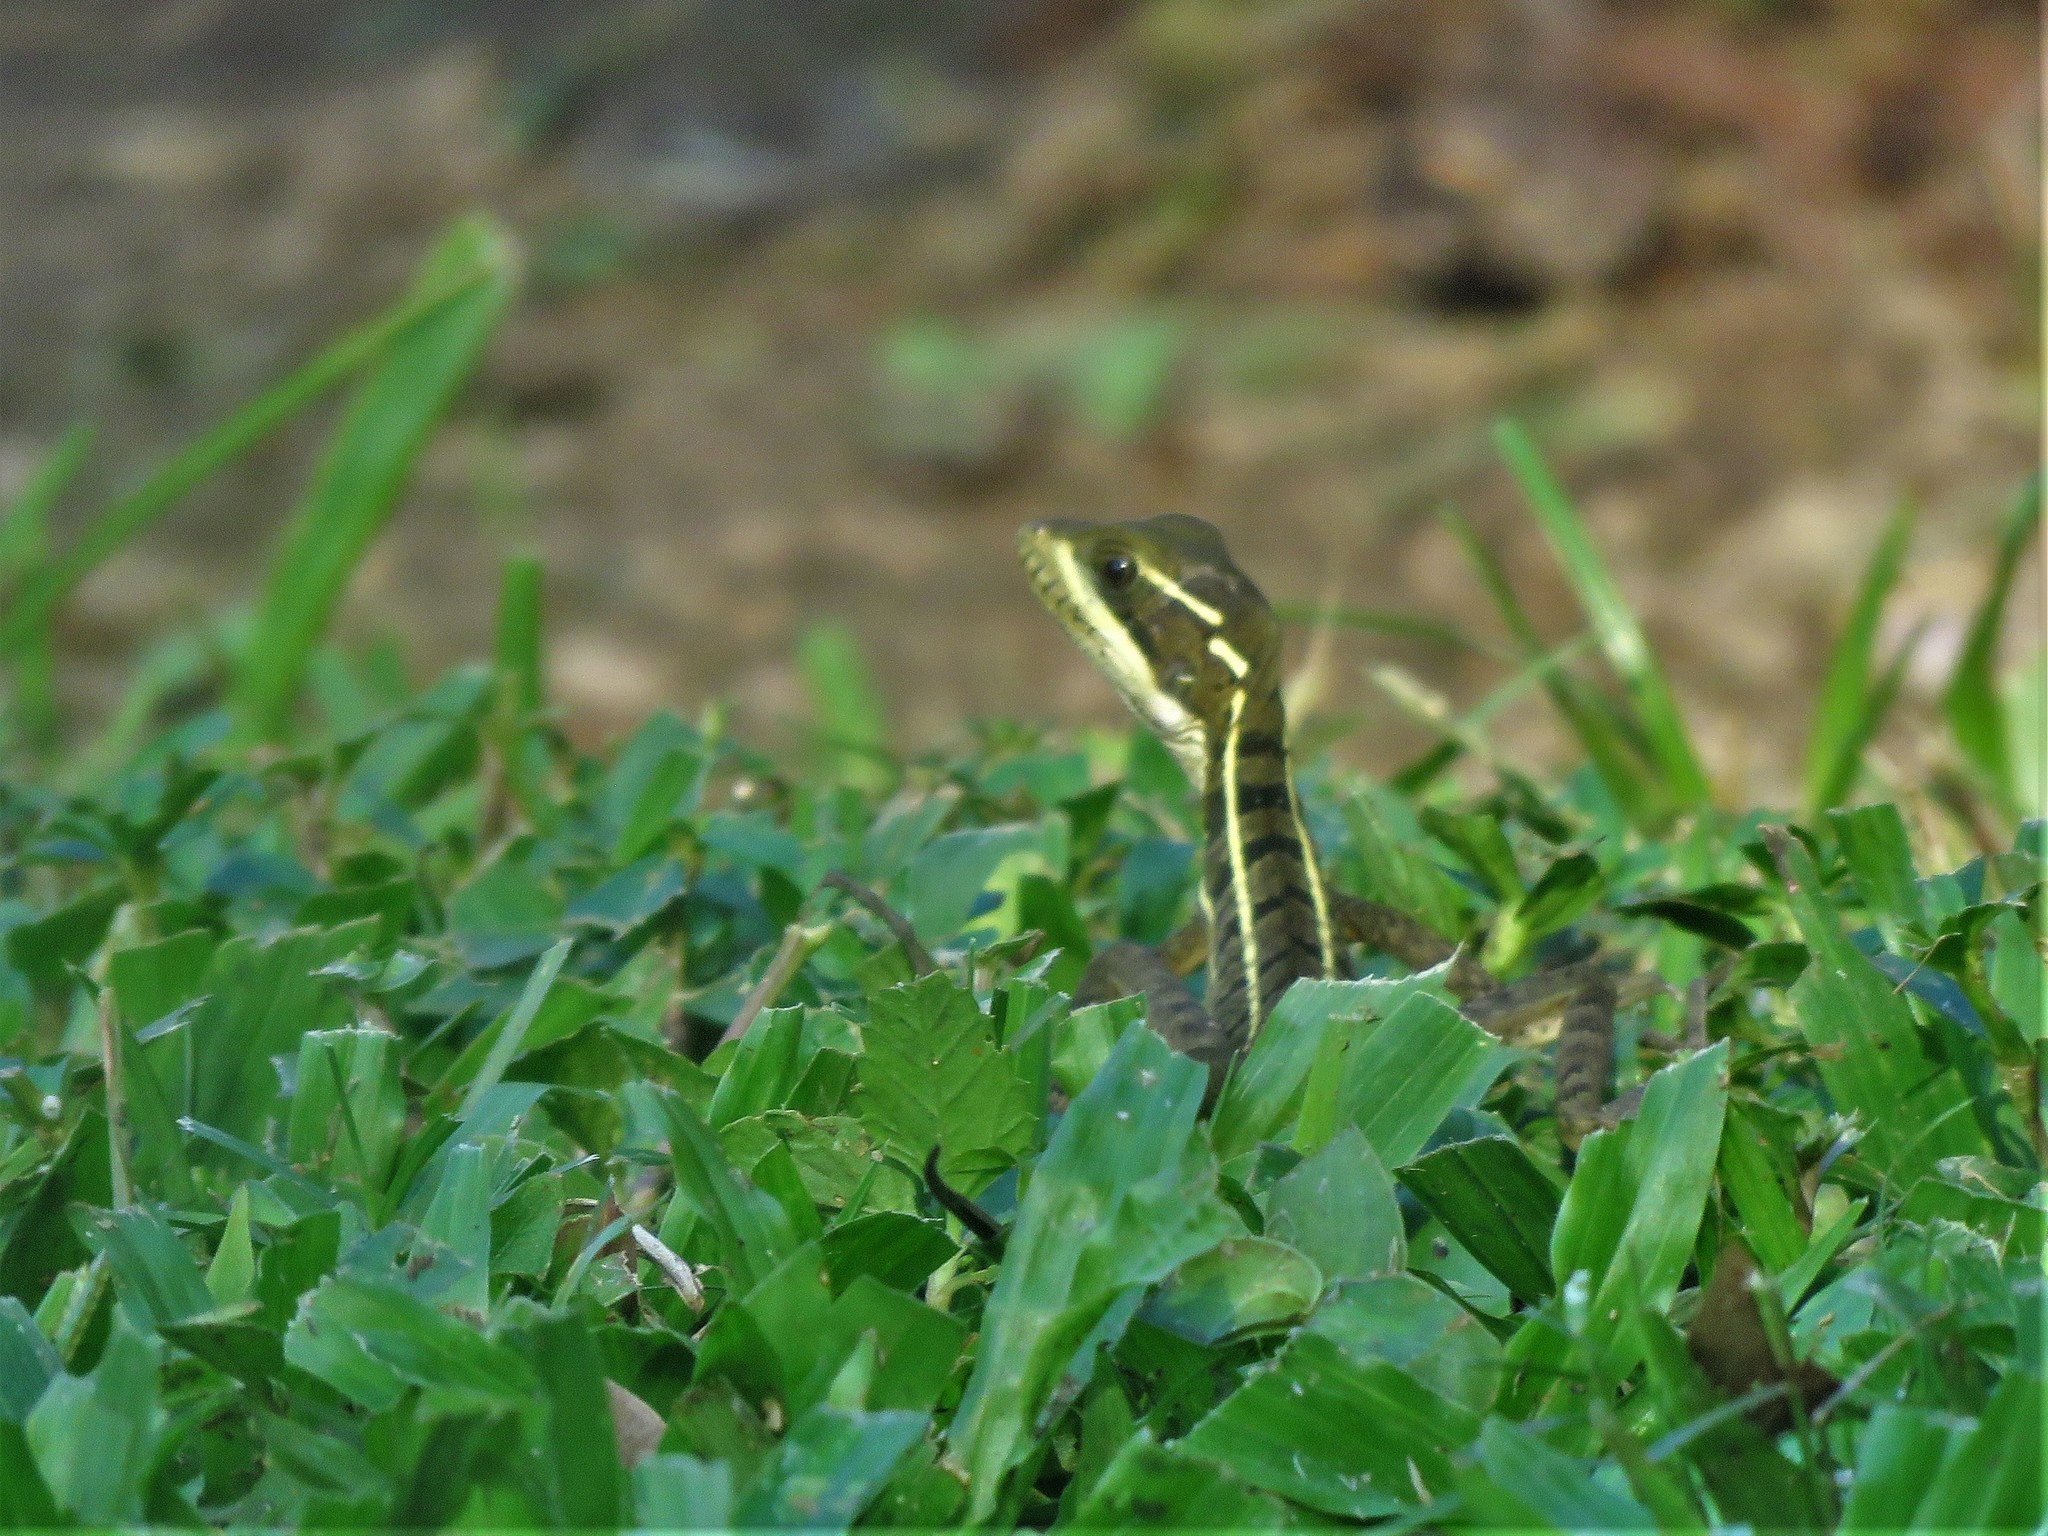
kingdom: Animalia
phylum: Chordata
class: Squamata
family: Corytophanidae
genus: Basiliscus
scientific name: Basiliscus vittatus
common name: Brown basilisk
